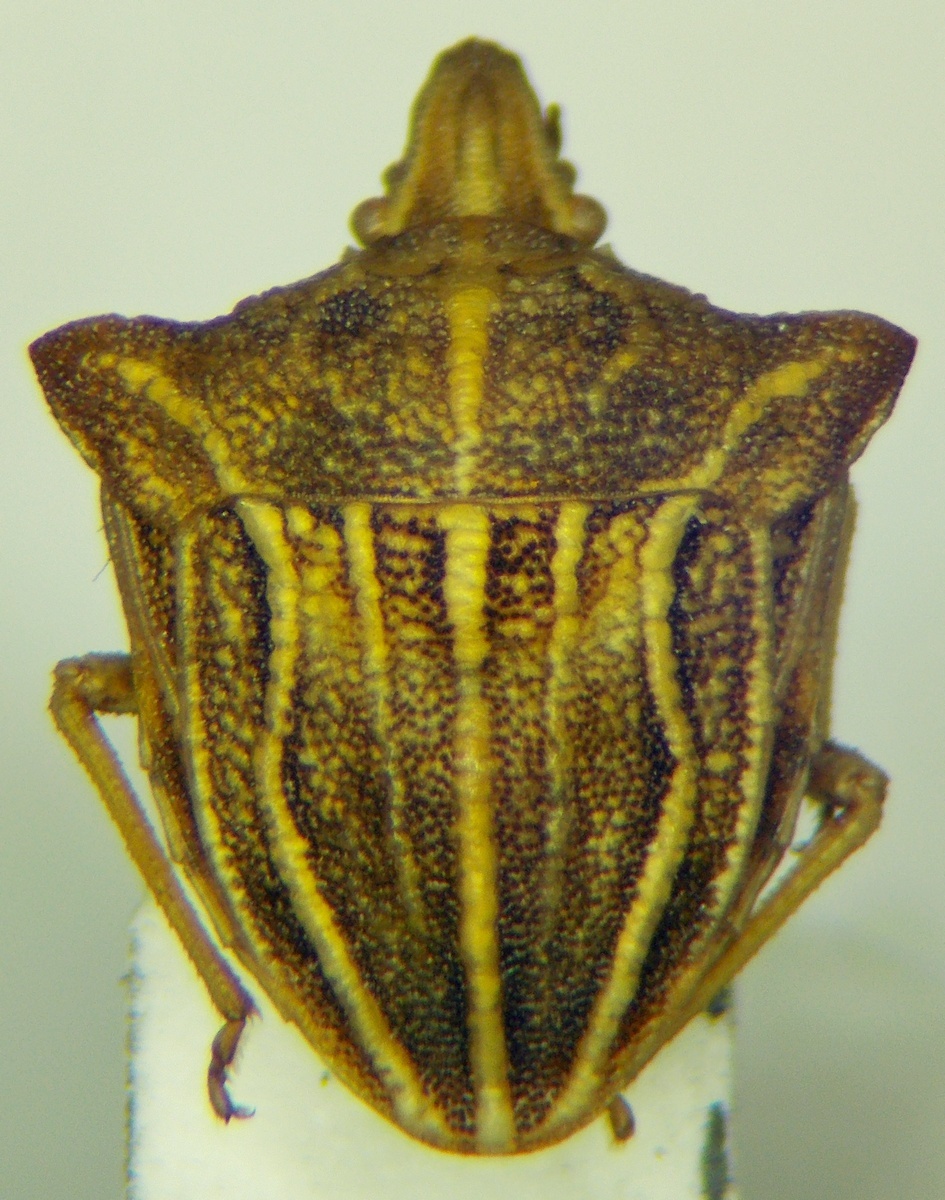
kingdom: Animalia
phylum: Arthropoda
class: Insecta
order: Hemiptera
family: Pentatomidae
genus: Ancyrosoma
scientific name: Ancyrosoma leucogrammes
